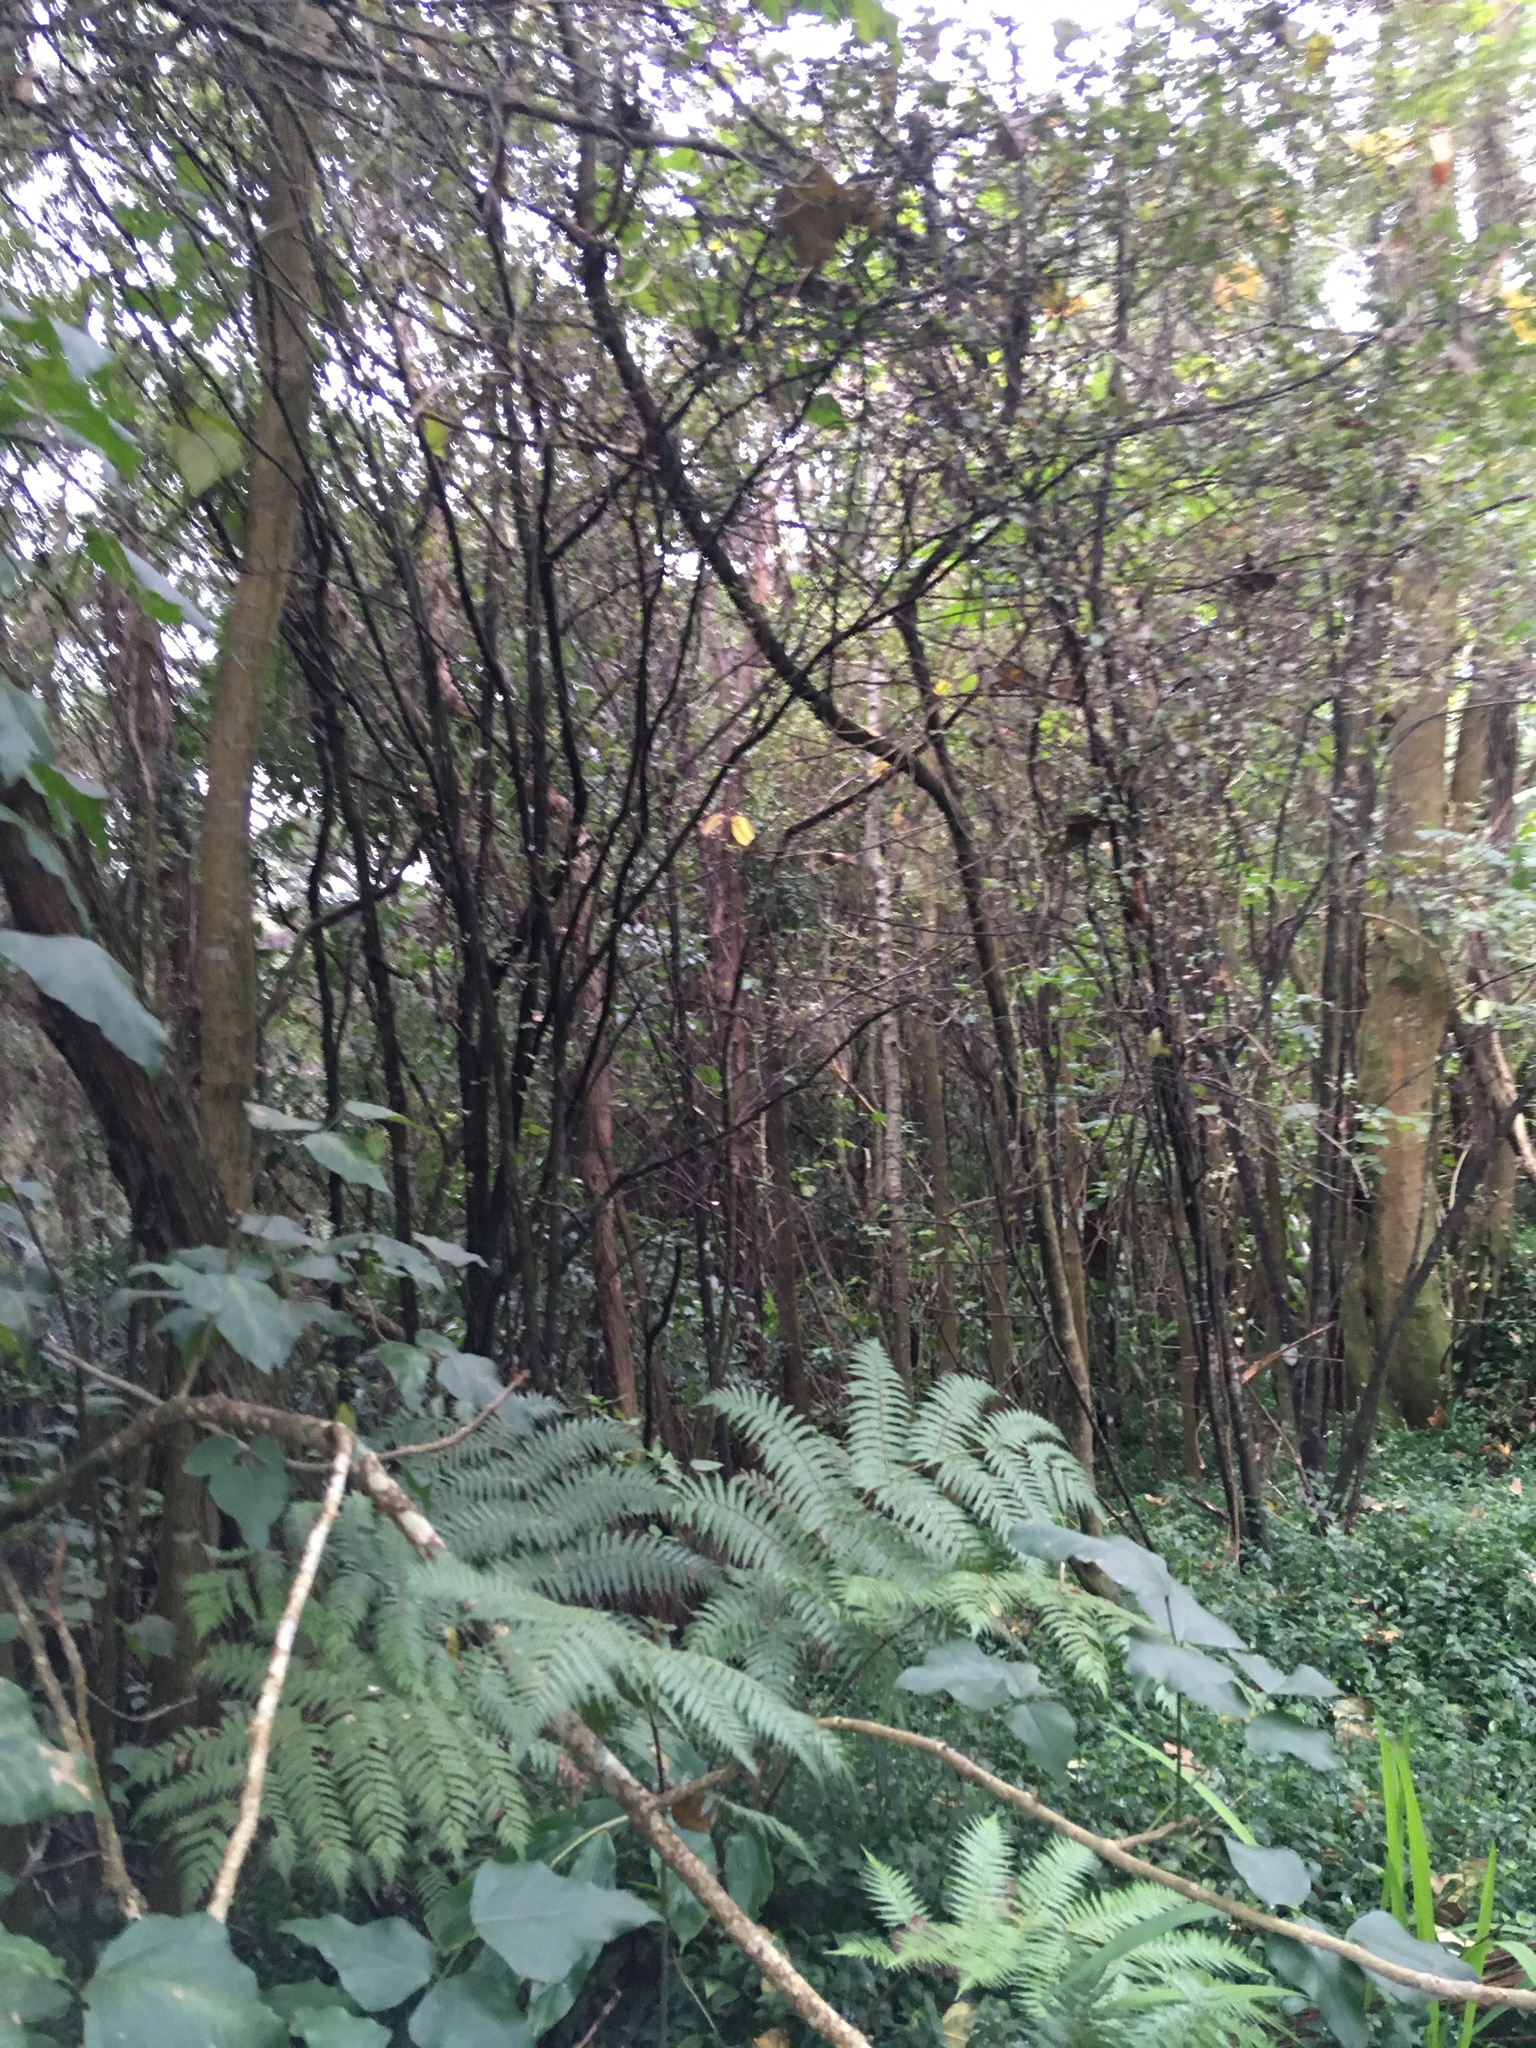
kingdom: Plantae
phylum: Tracheophyta
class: Magnoliopsida
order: Fabales
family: Fabaceae
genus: Erythrina
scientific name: Erythrina sykesii
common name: Coraltree
